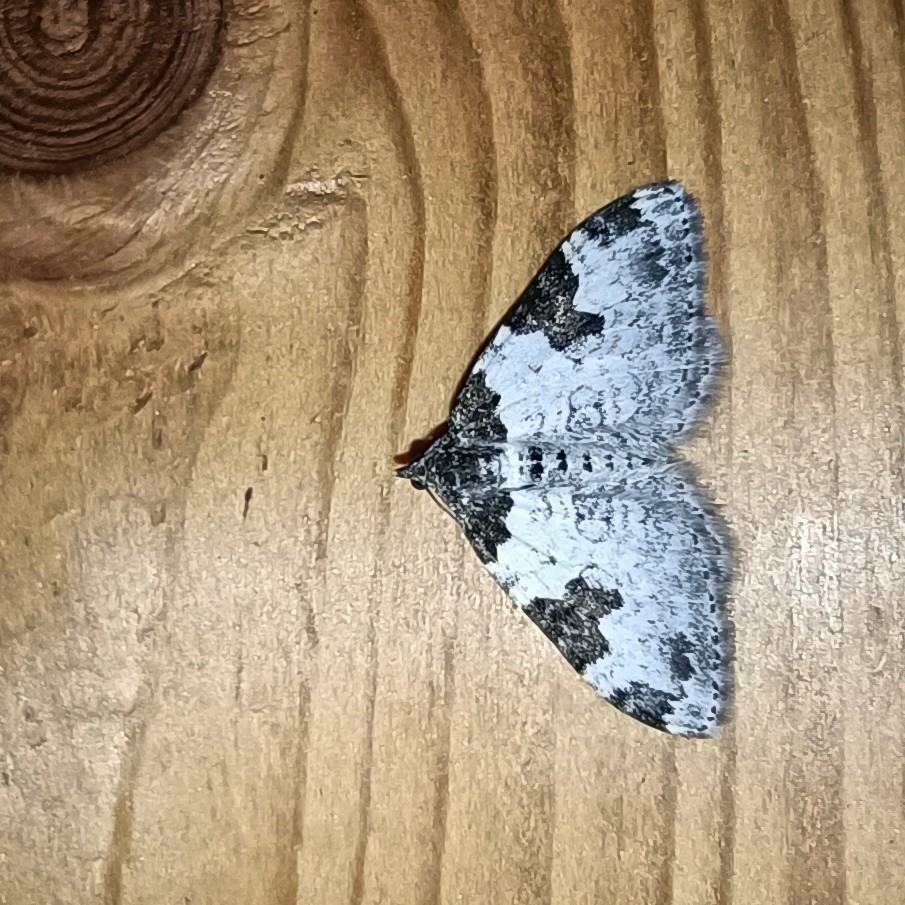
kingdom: Animalia
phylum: Arthropoda
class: Insecta
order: Lepidoptera
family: Geometridae
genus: Xanthorhoe
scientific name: Xanthorhoe fluctuata
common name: Garden carpet
